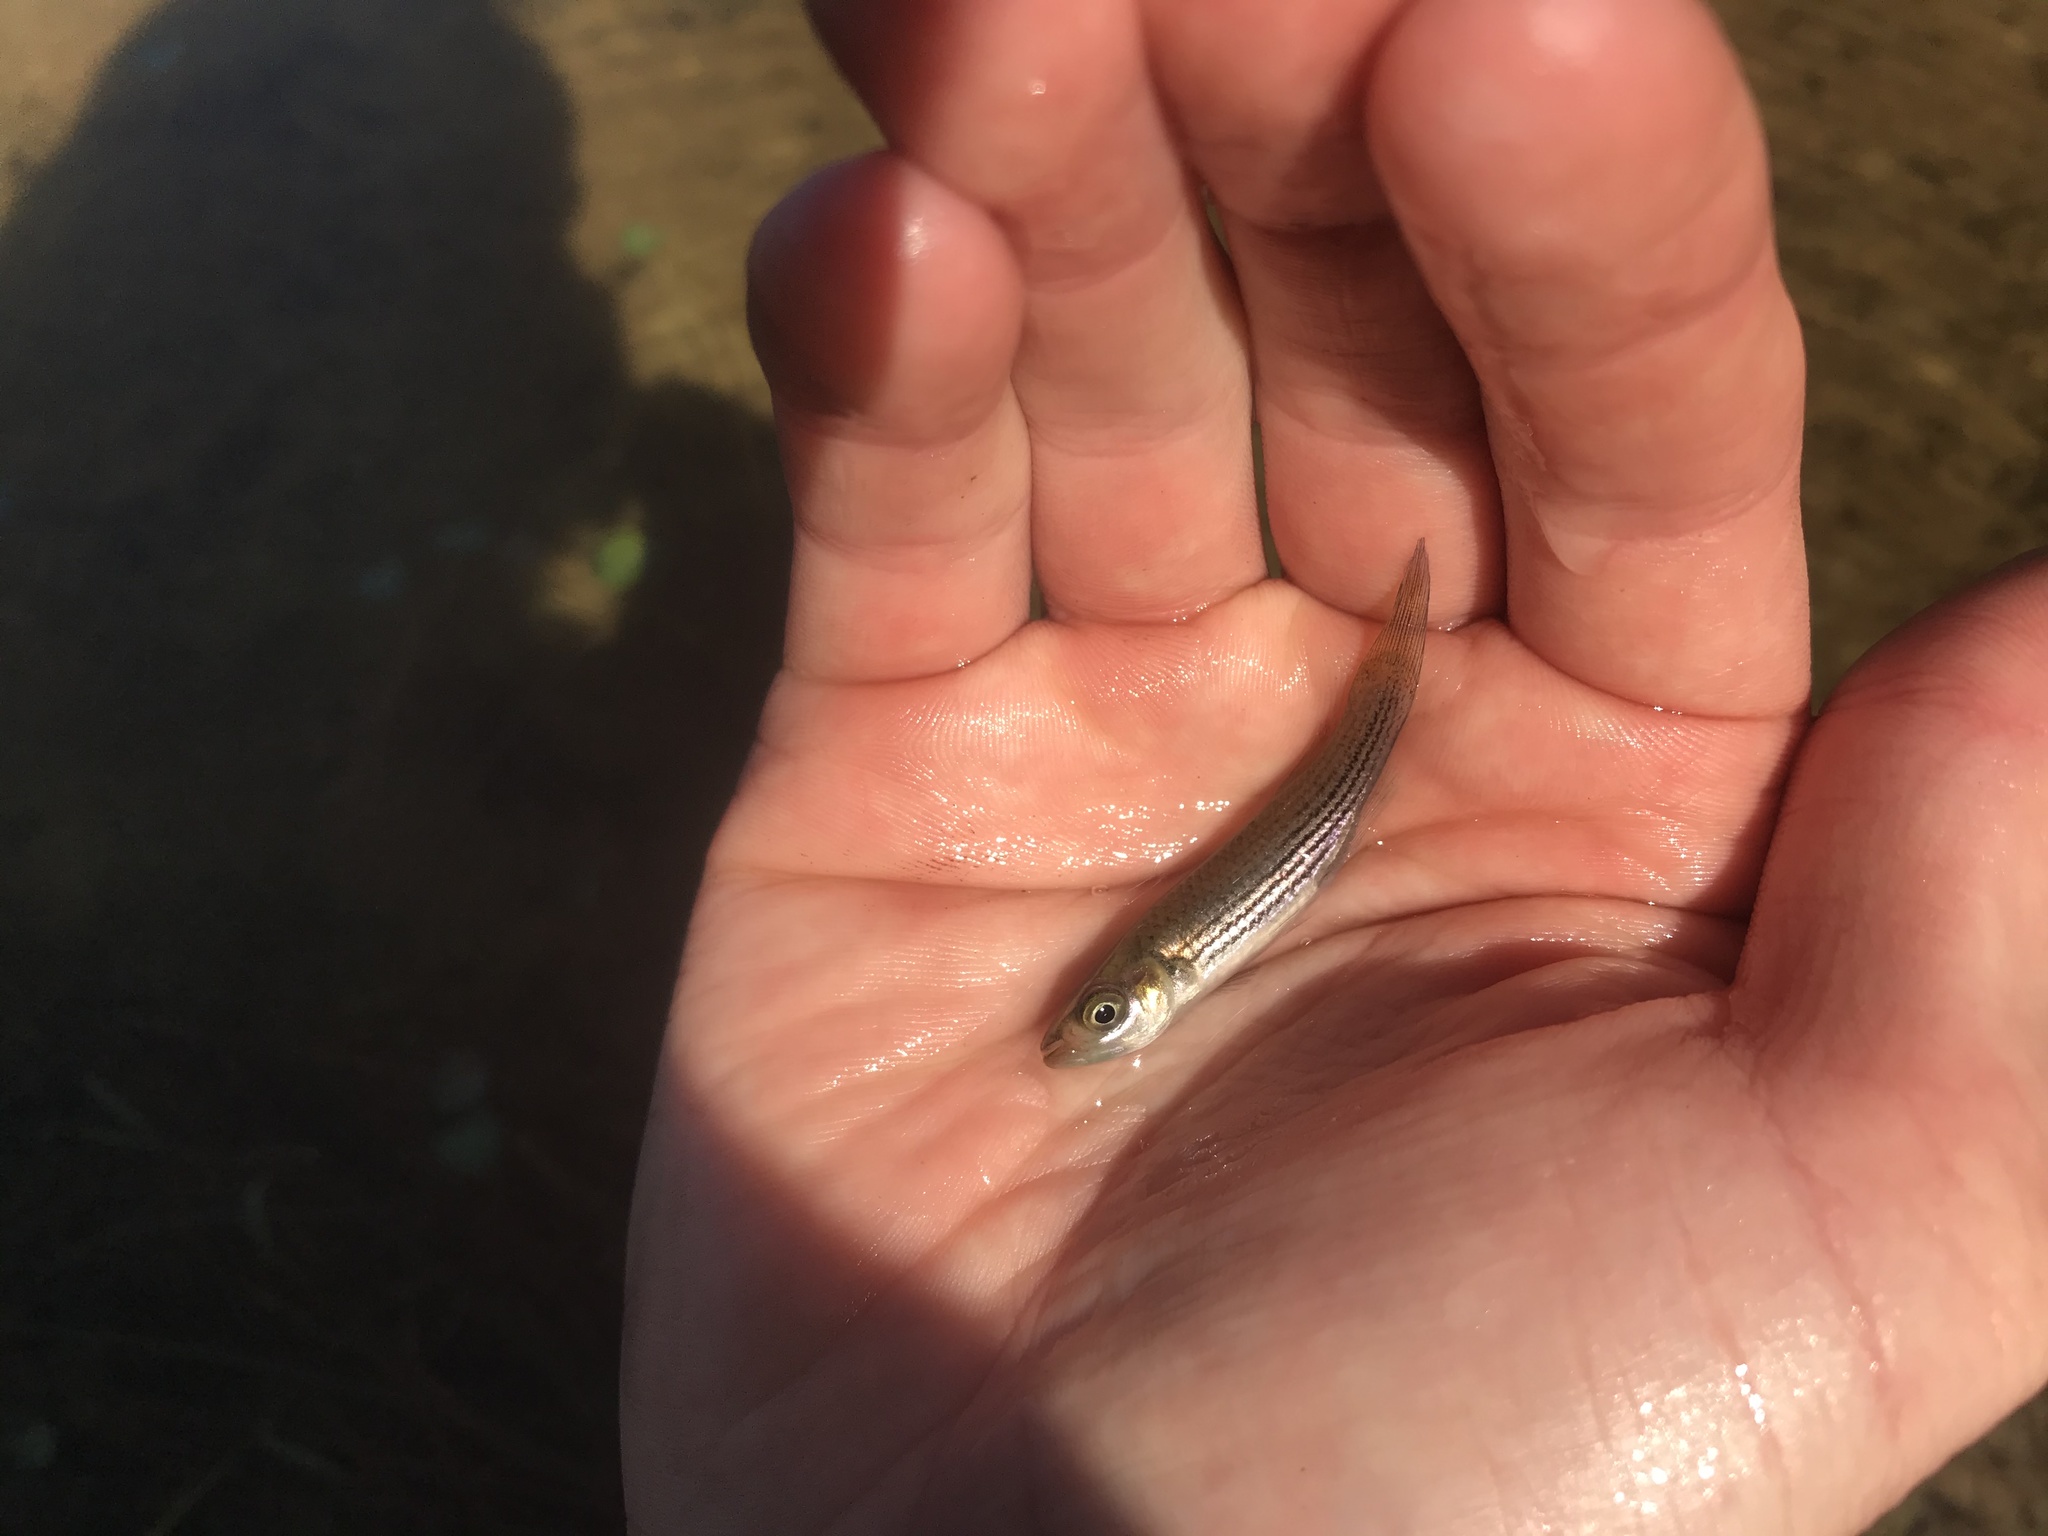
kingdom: Animalia
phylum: Chordata
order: Cyprinodontiformes
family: Fundulidae
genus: Fundulus
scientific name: Fundulus lineolatus
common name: Lined topminnow
